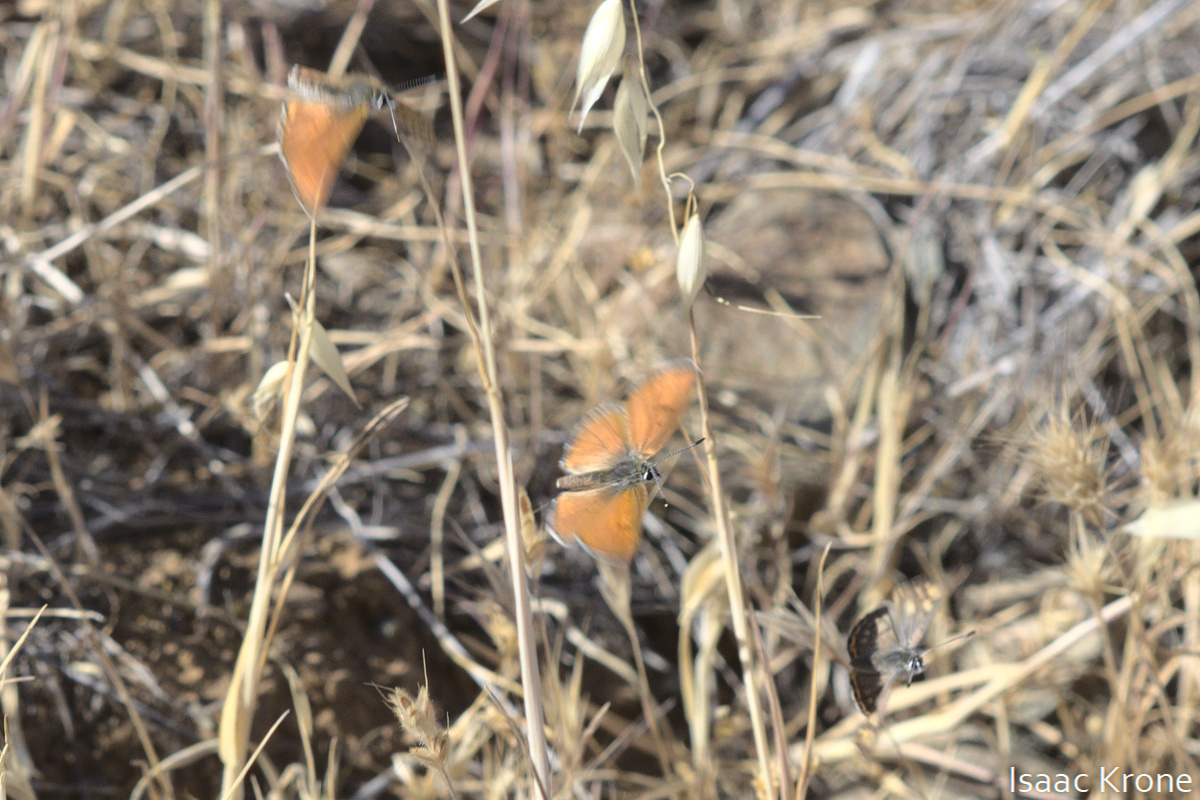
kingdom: Animalia
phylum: Arthropoda
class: Insecta
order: Lepidoptera
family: Lycaenidae
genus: Tharsalea
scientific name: Tharsalea gorgon
